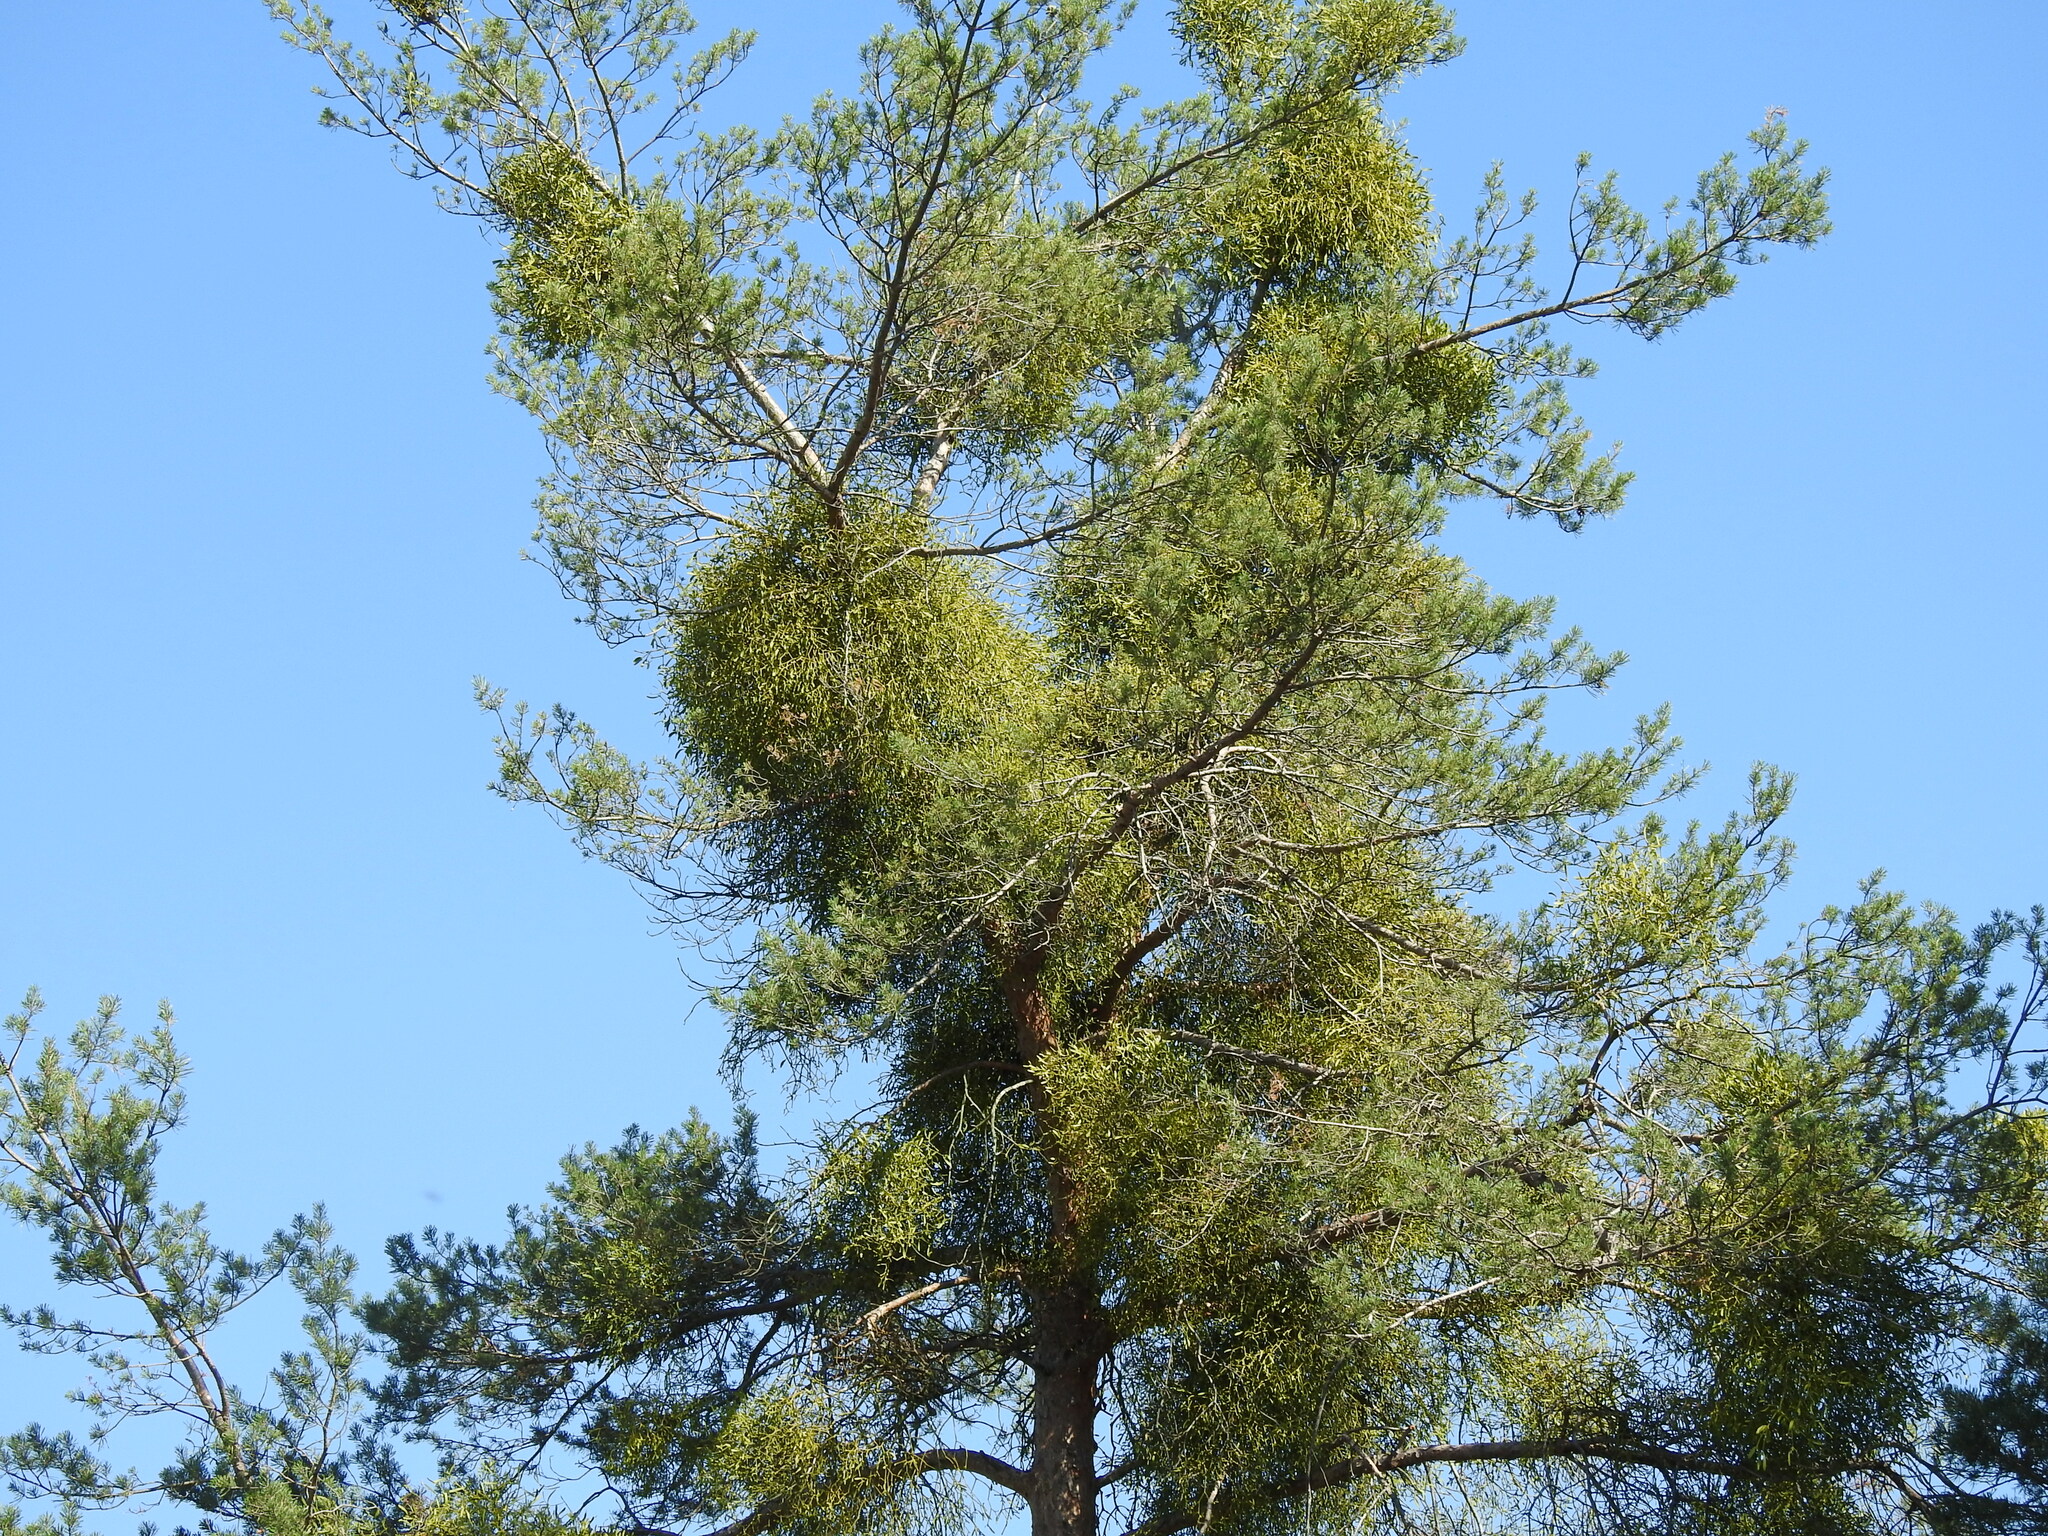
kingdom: Plantae
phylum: Tracheophyta
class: Magnoliopsida
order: Santalales
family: Viscaceae
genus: Viscum
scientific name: Viscum laxum
